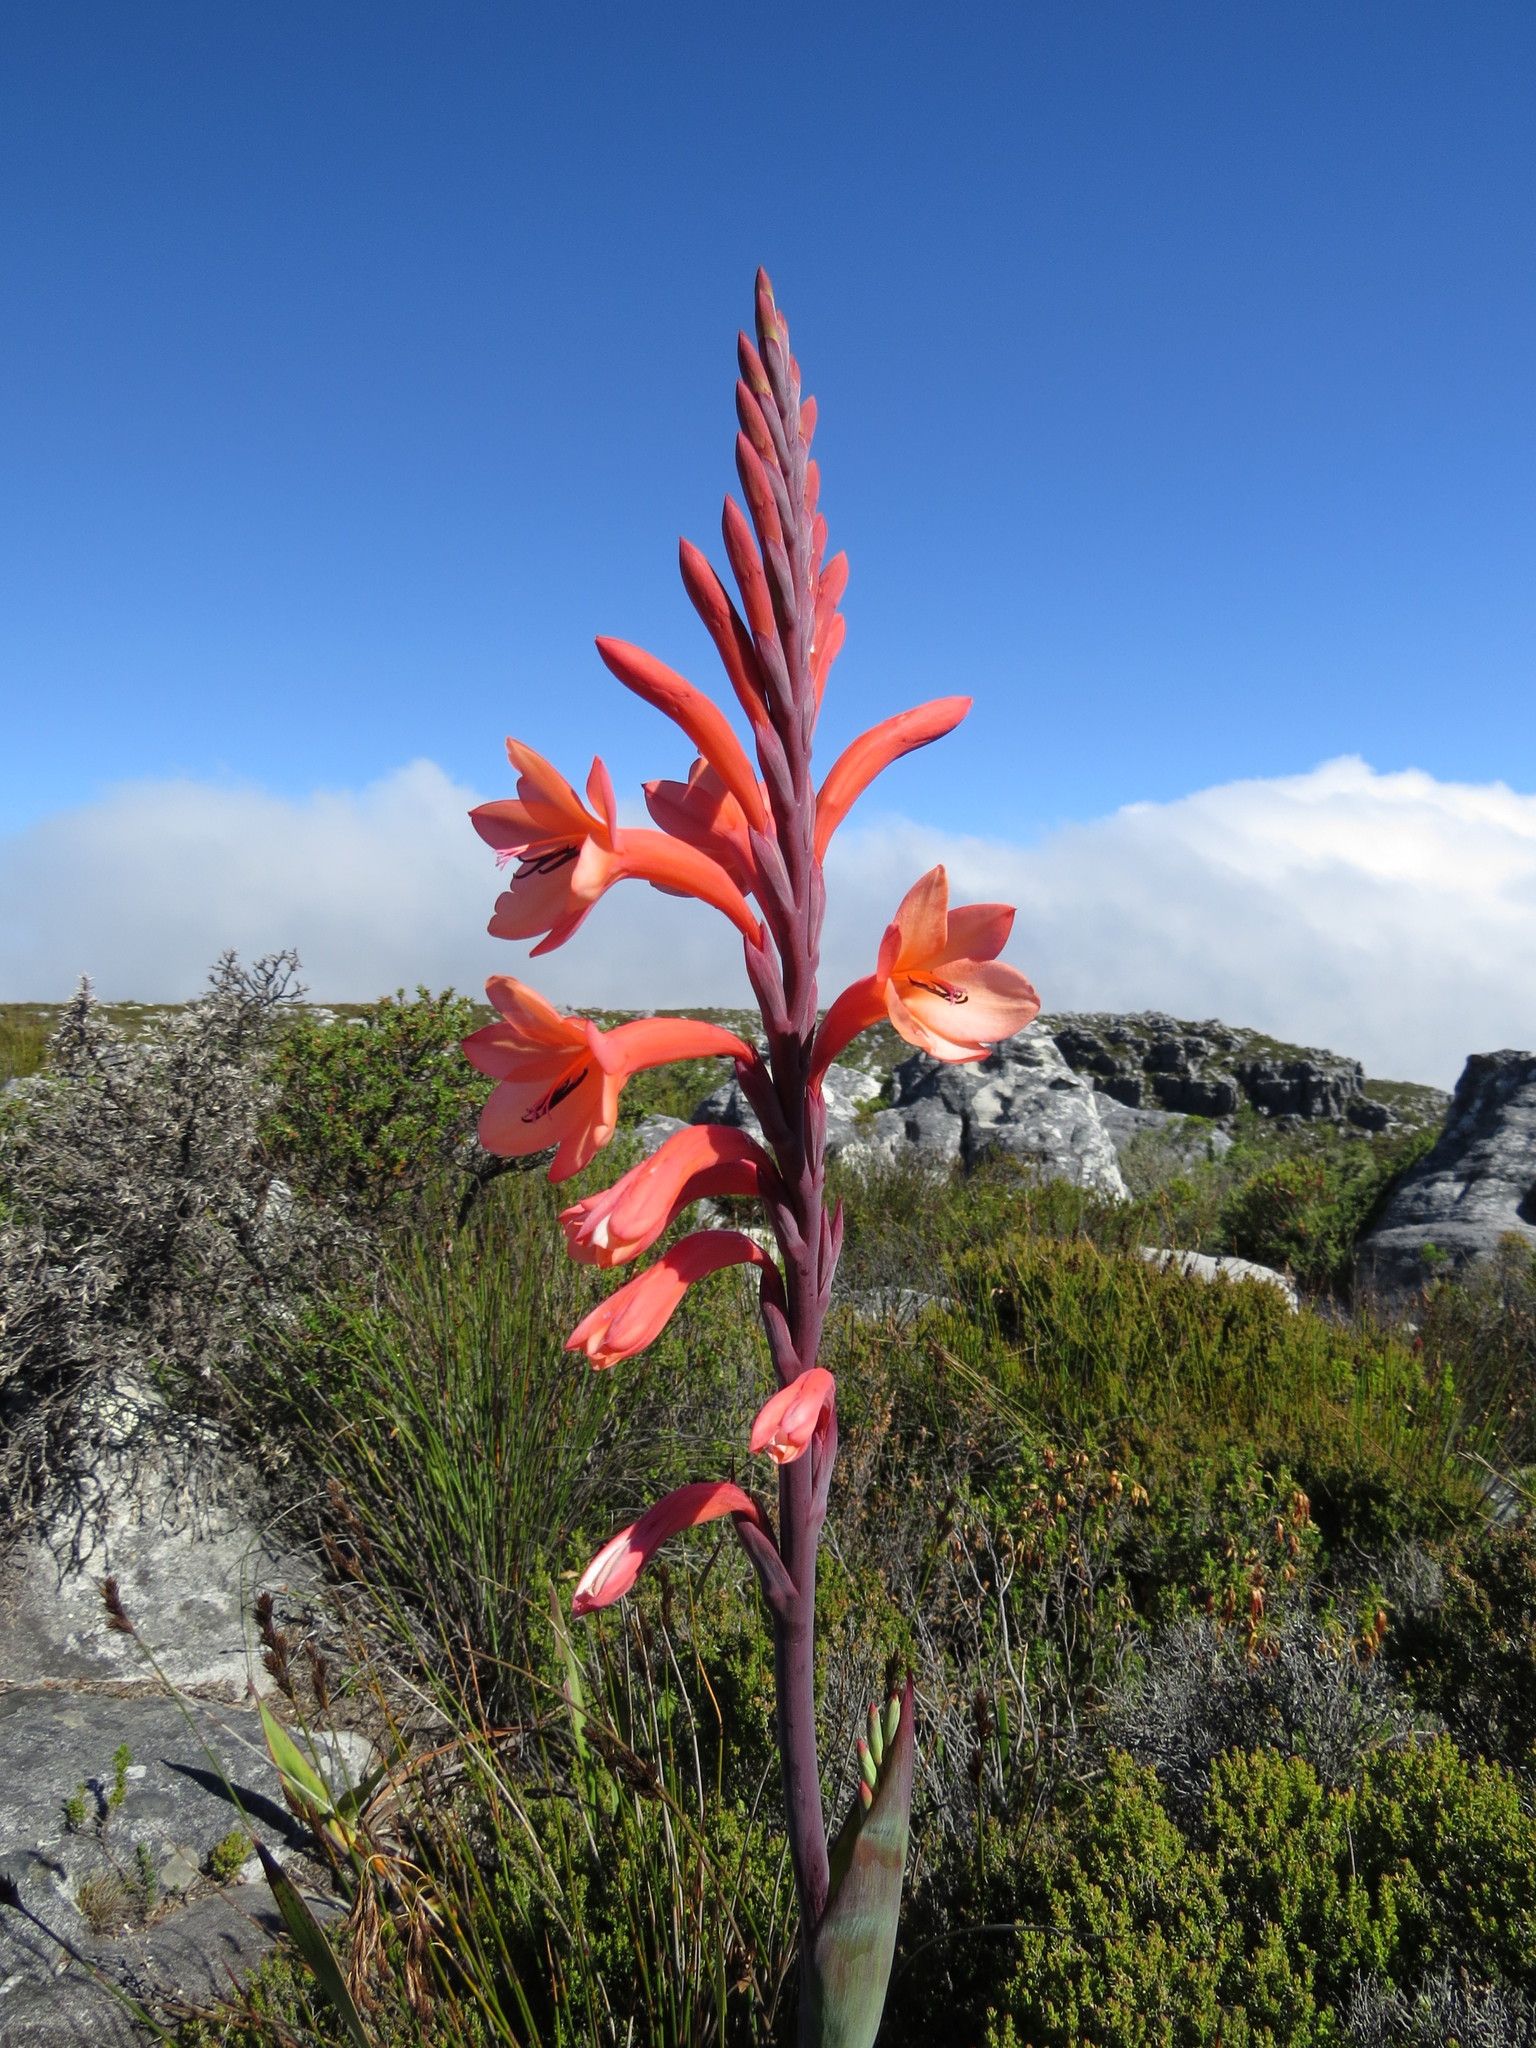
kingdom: Plantae
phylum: Tracheophyta
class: Liliopsida
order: Asparagales
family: Iridaceae
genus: Watsonia
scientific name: Watsonia tabularis
